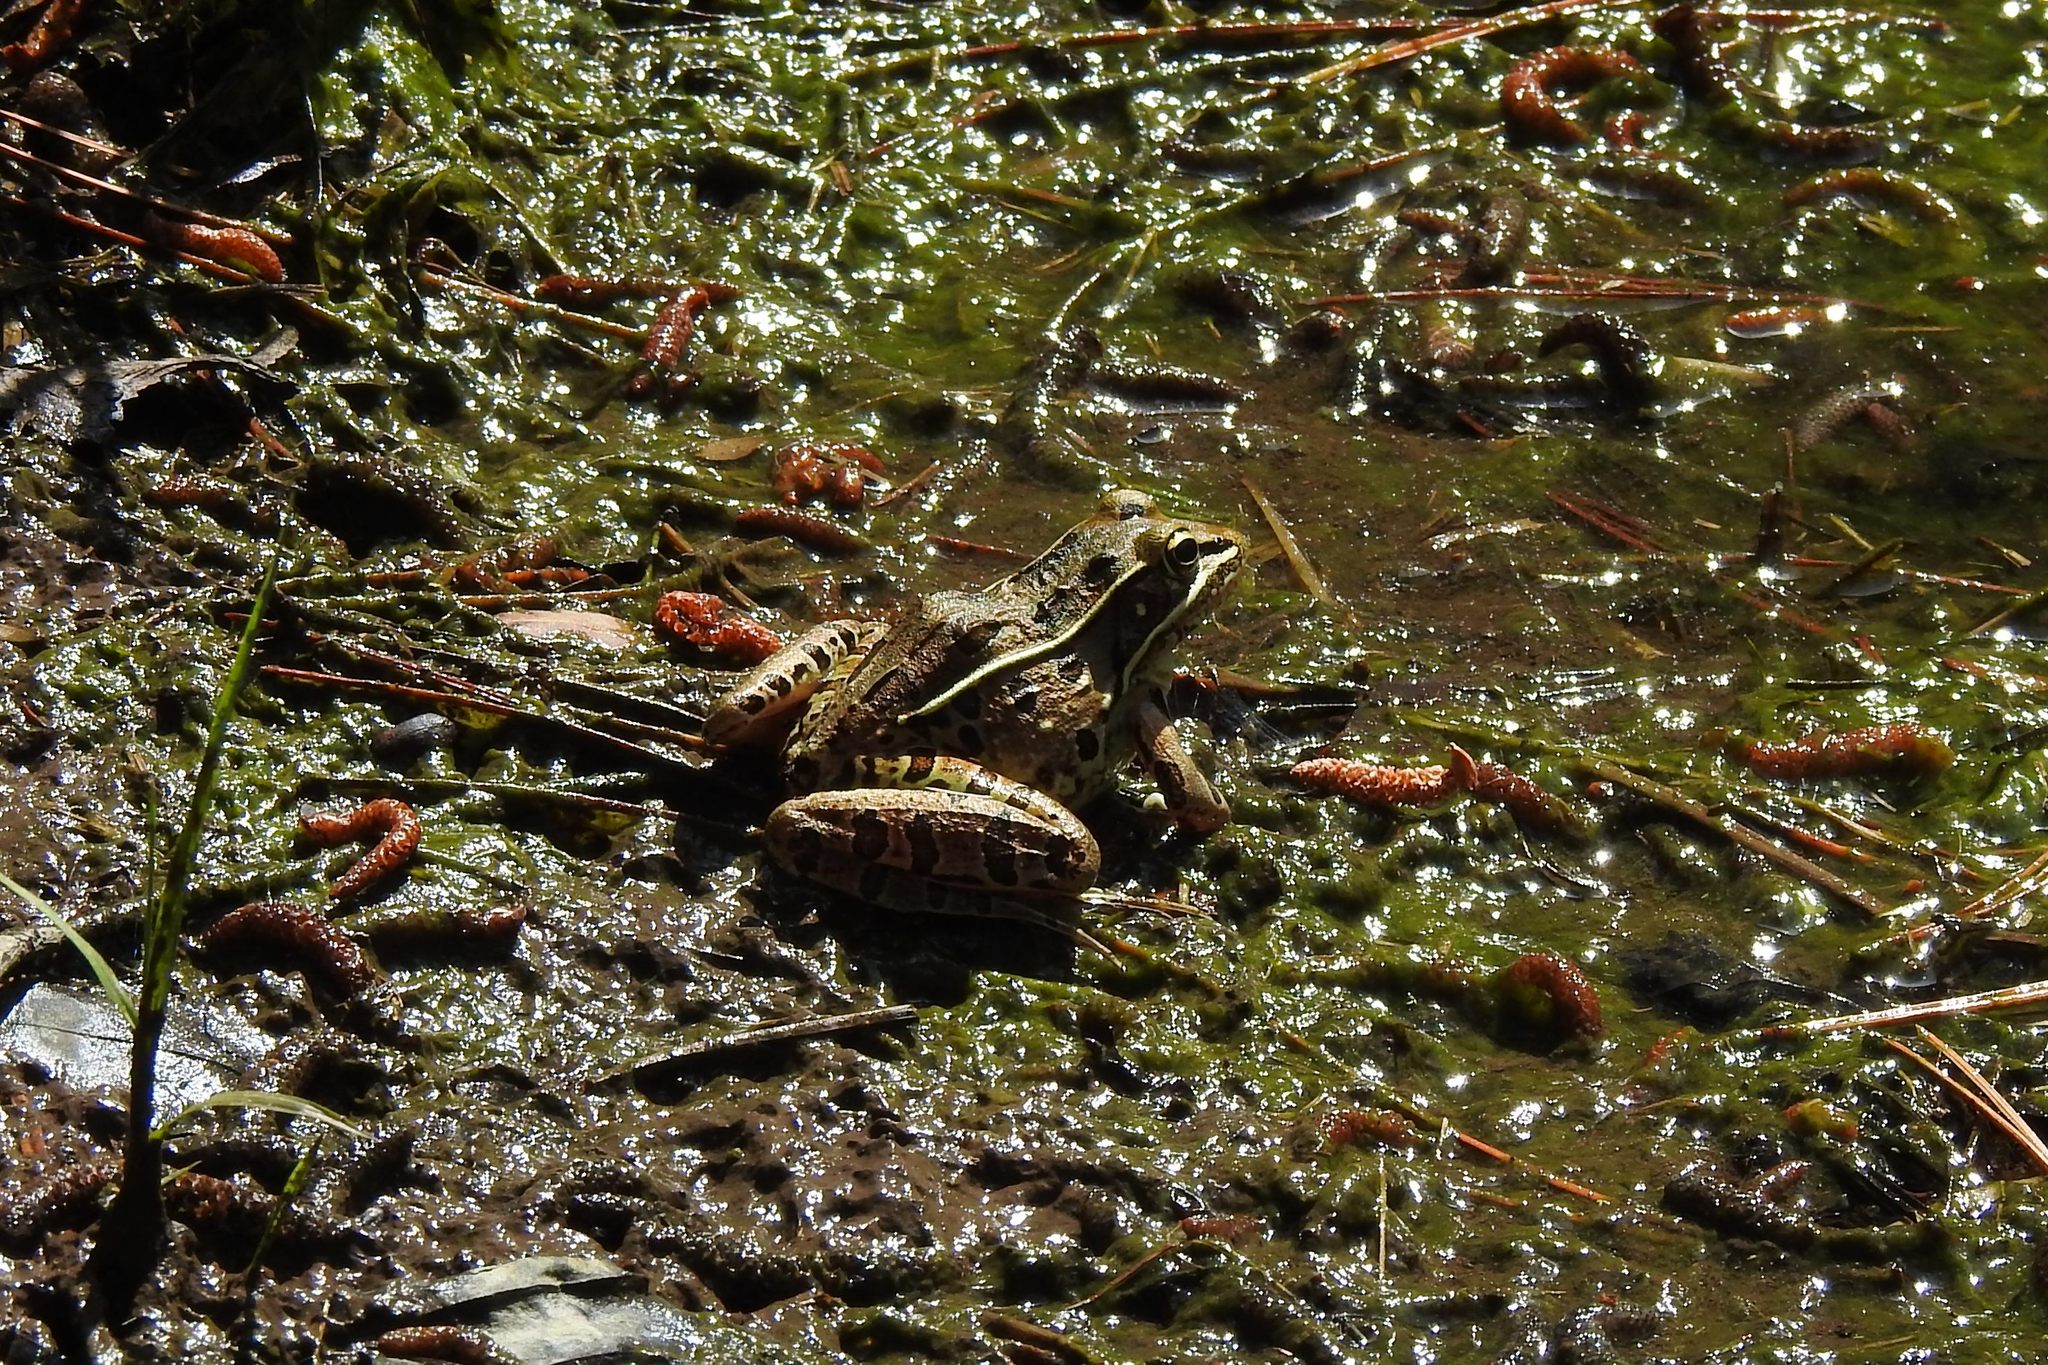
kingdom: Animalia
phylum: Chordata
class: Amphibia
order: Anura
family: Ranidae
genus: Lithobates
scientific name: Lithobates sphenocephalus
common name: Southern leopard frog
